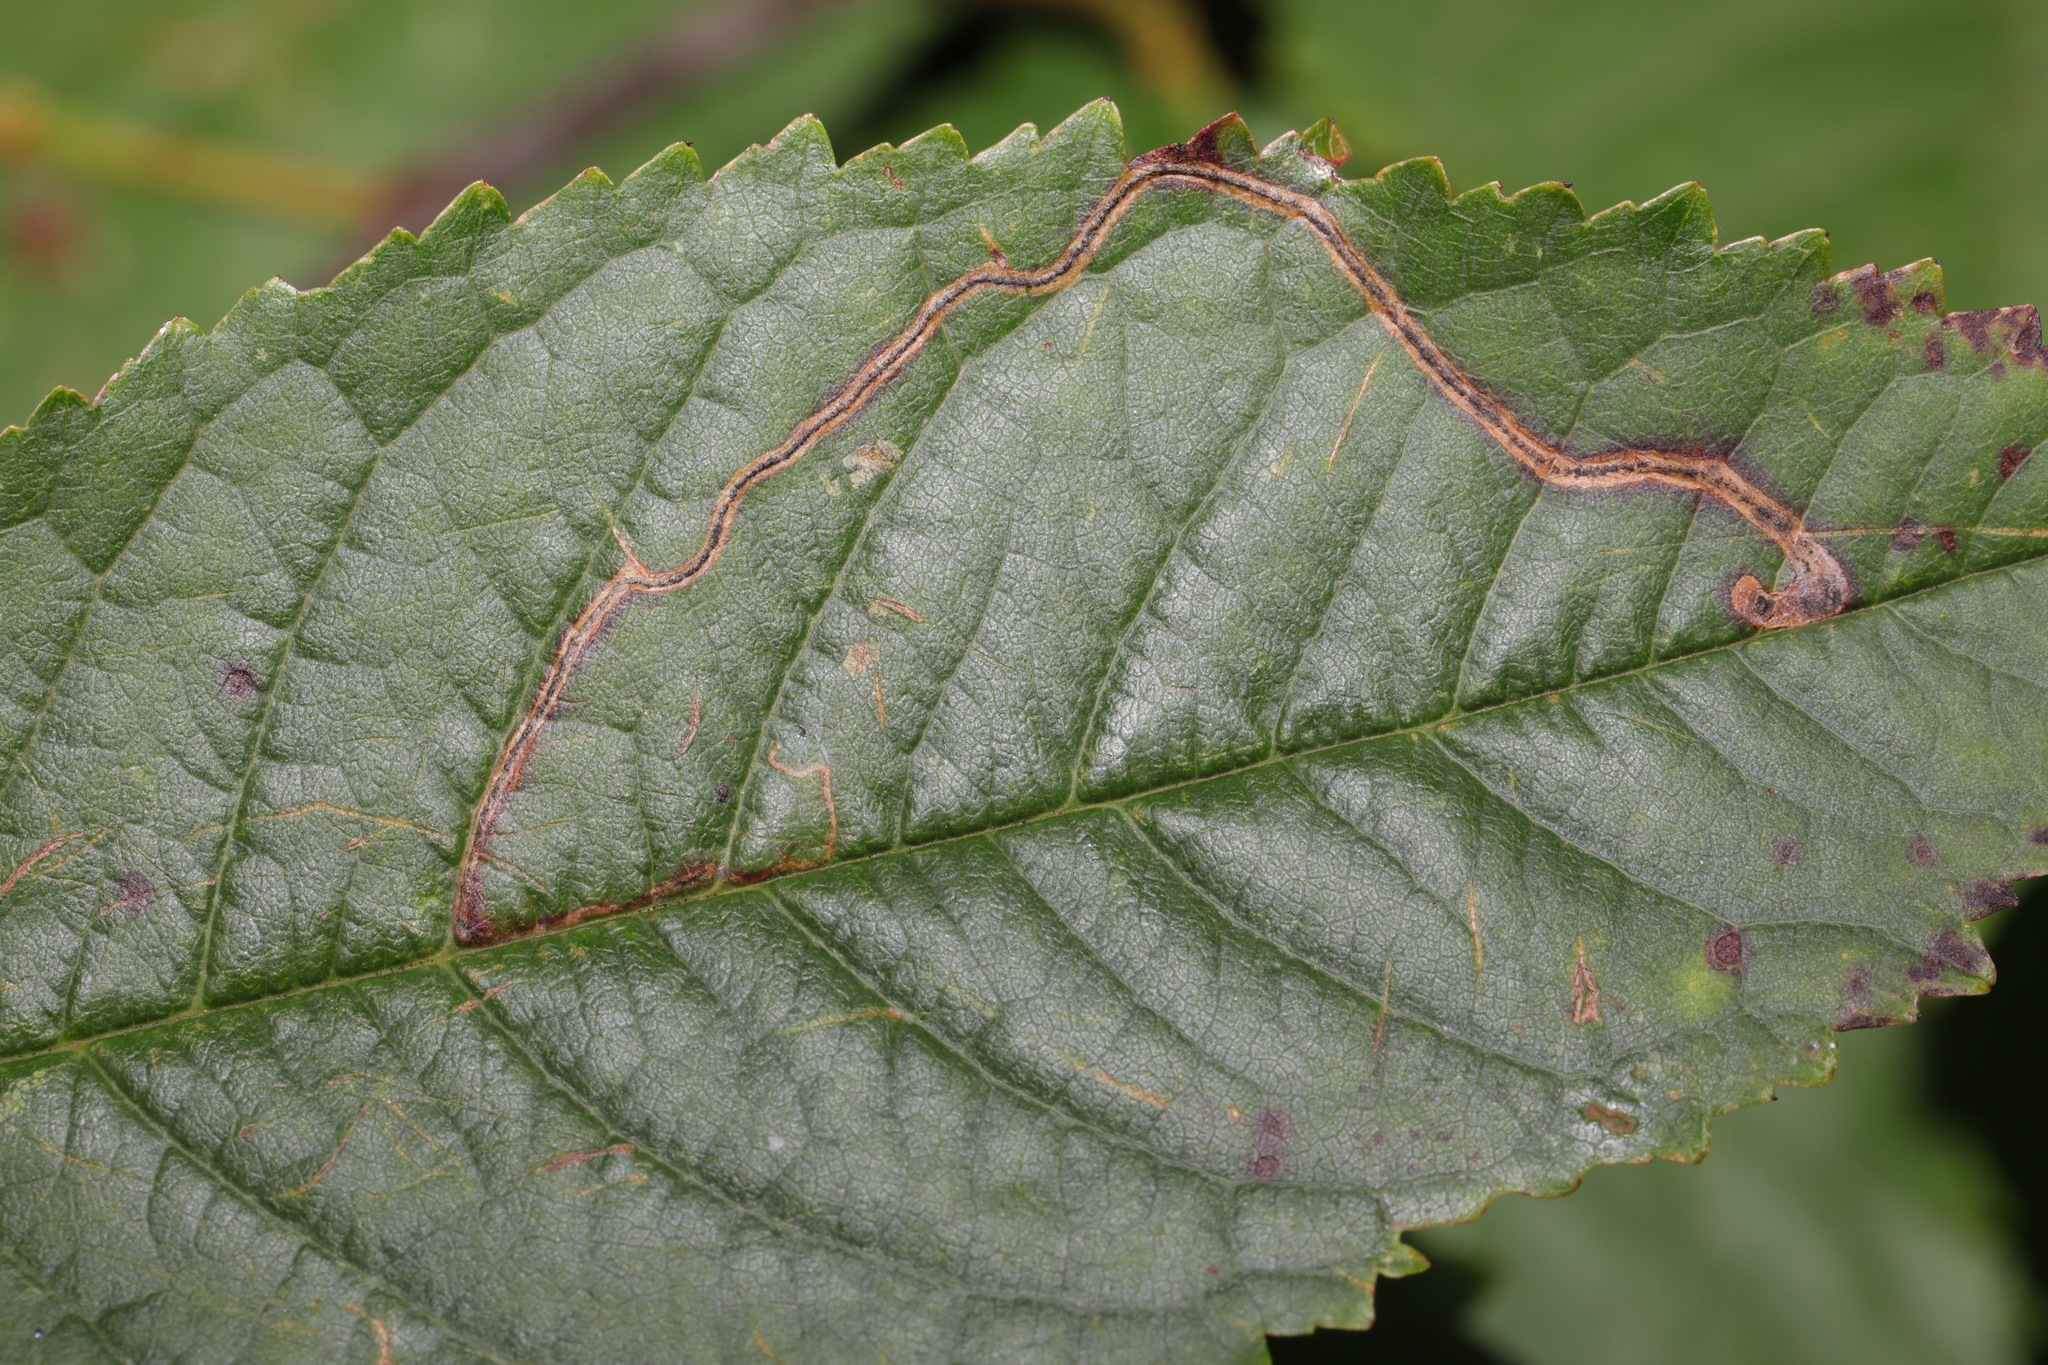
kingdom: Animalia
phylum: Arthropoda
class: Insecta
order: Lepidoptera
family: Lyonetiidae
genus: Lyonetia
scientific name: Lyonetia clerkella
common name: Apple leaf miner
